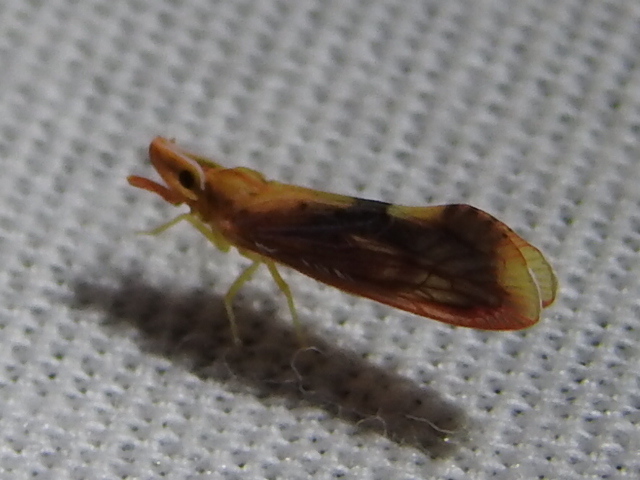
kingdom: Animalia
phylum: Arthropoda
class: Insecta
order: Hemiptera
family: Derbidae
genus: Otiocerus
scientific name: Otiocerus stollii
